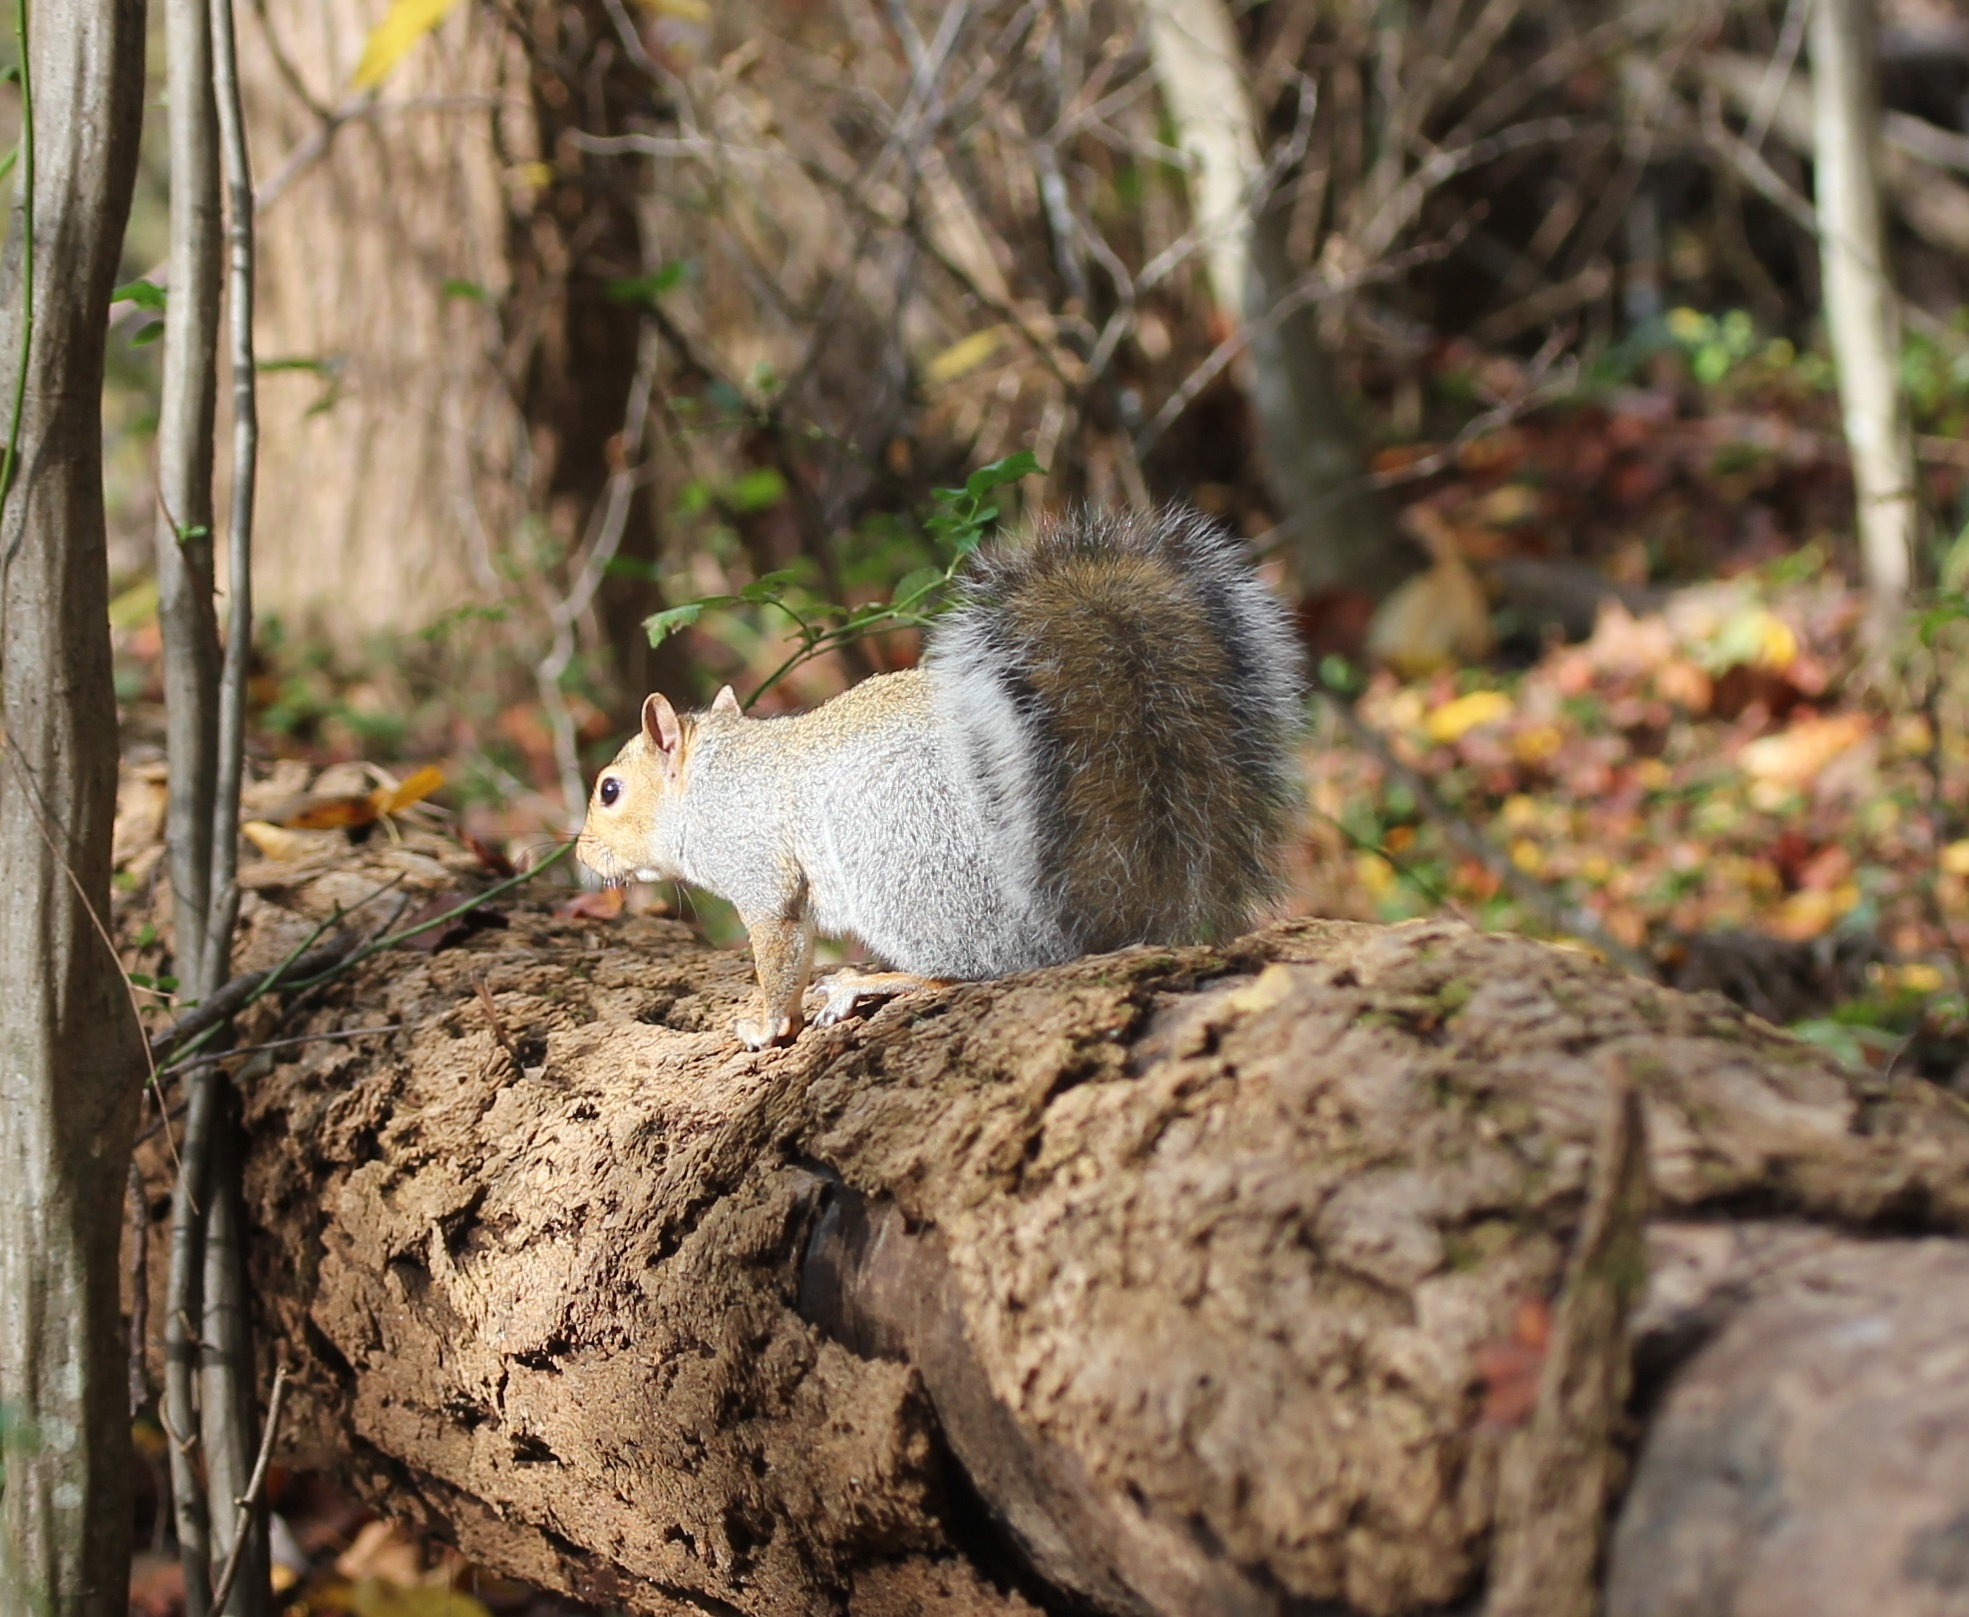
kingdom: Animalia
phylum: Chordata
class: Mammalia
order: Rodentia
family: Sciuridae
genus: Sciurus
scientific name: Sciurus carolinensis
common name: Eastern gray squirrel
